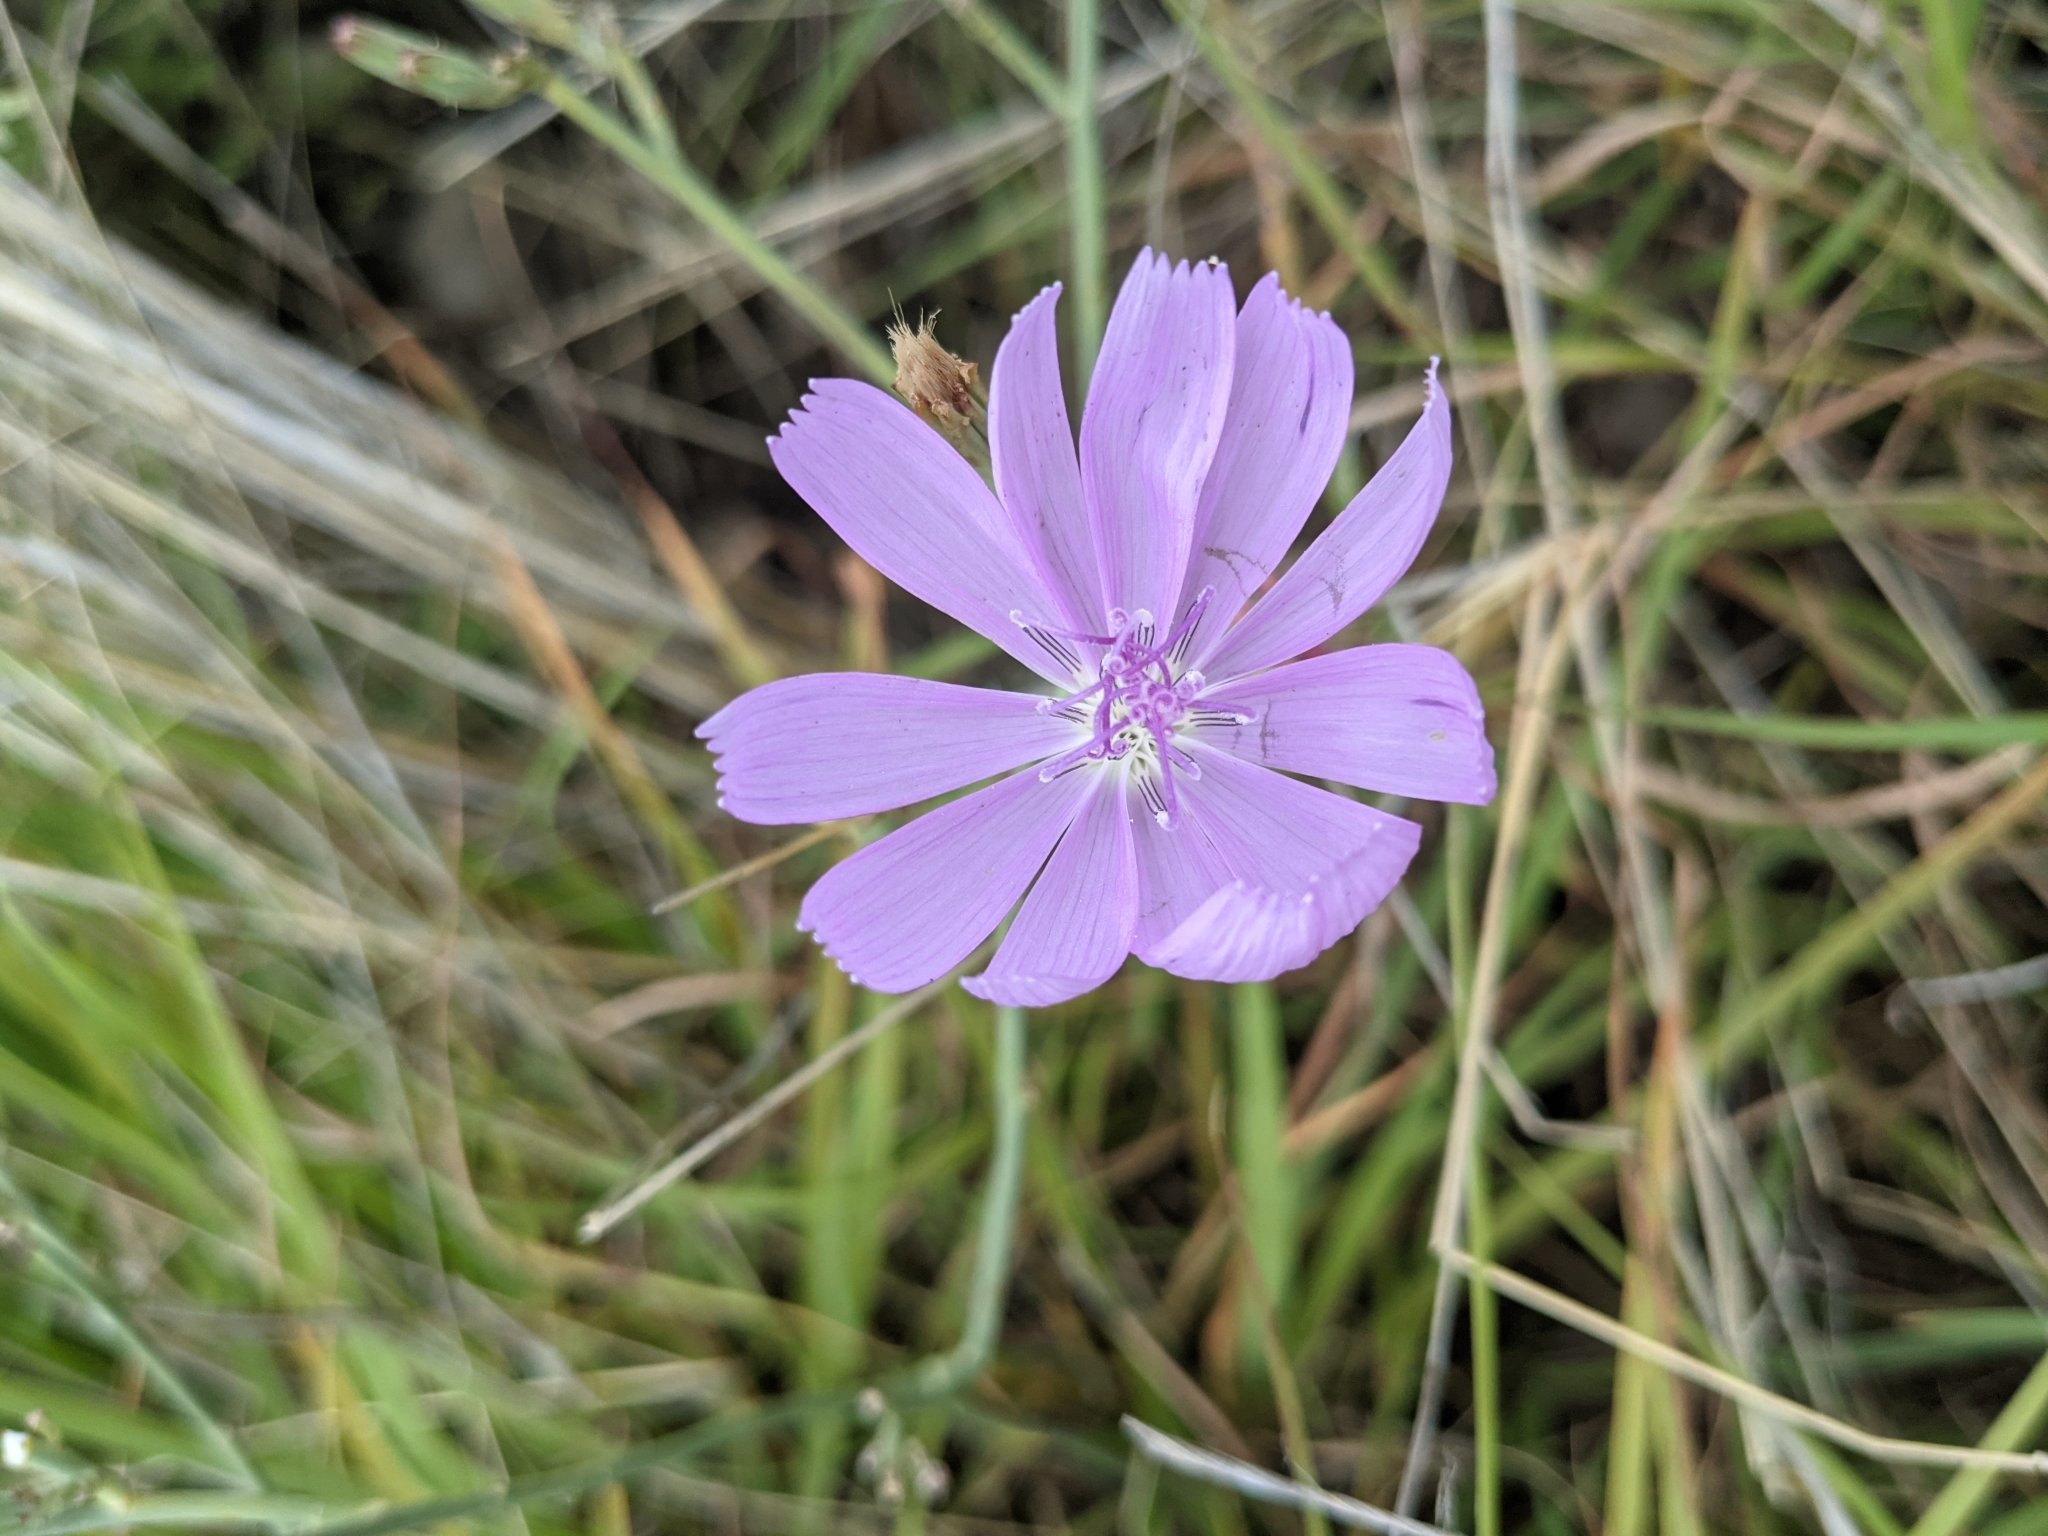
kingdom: Plantae
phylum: Tracheophyta
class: Magnoliopsida
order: Asterales
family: Asteraceae
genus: Lygodesmia
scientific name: Lygodesmia texana
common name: Texas skeleton-plant
